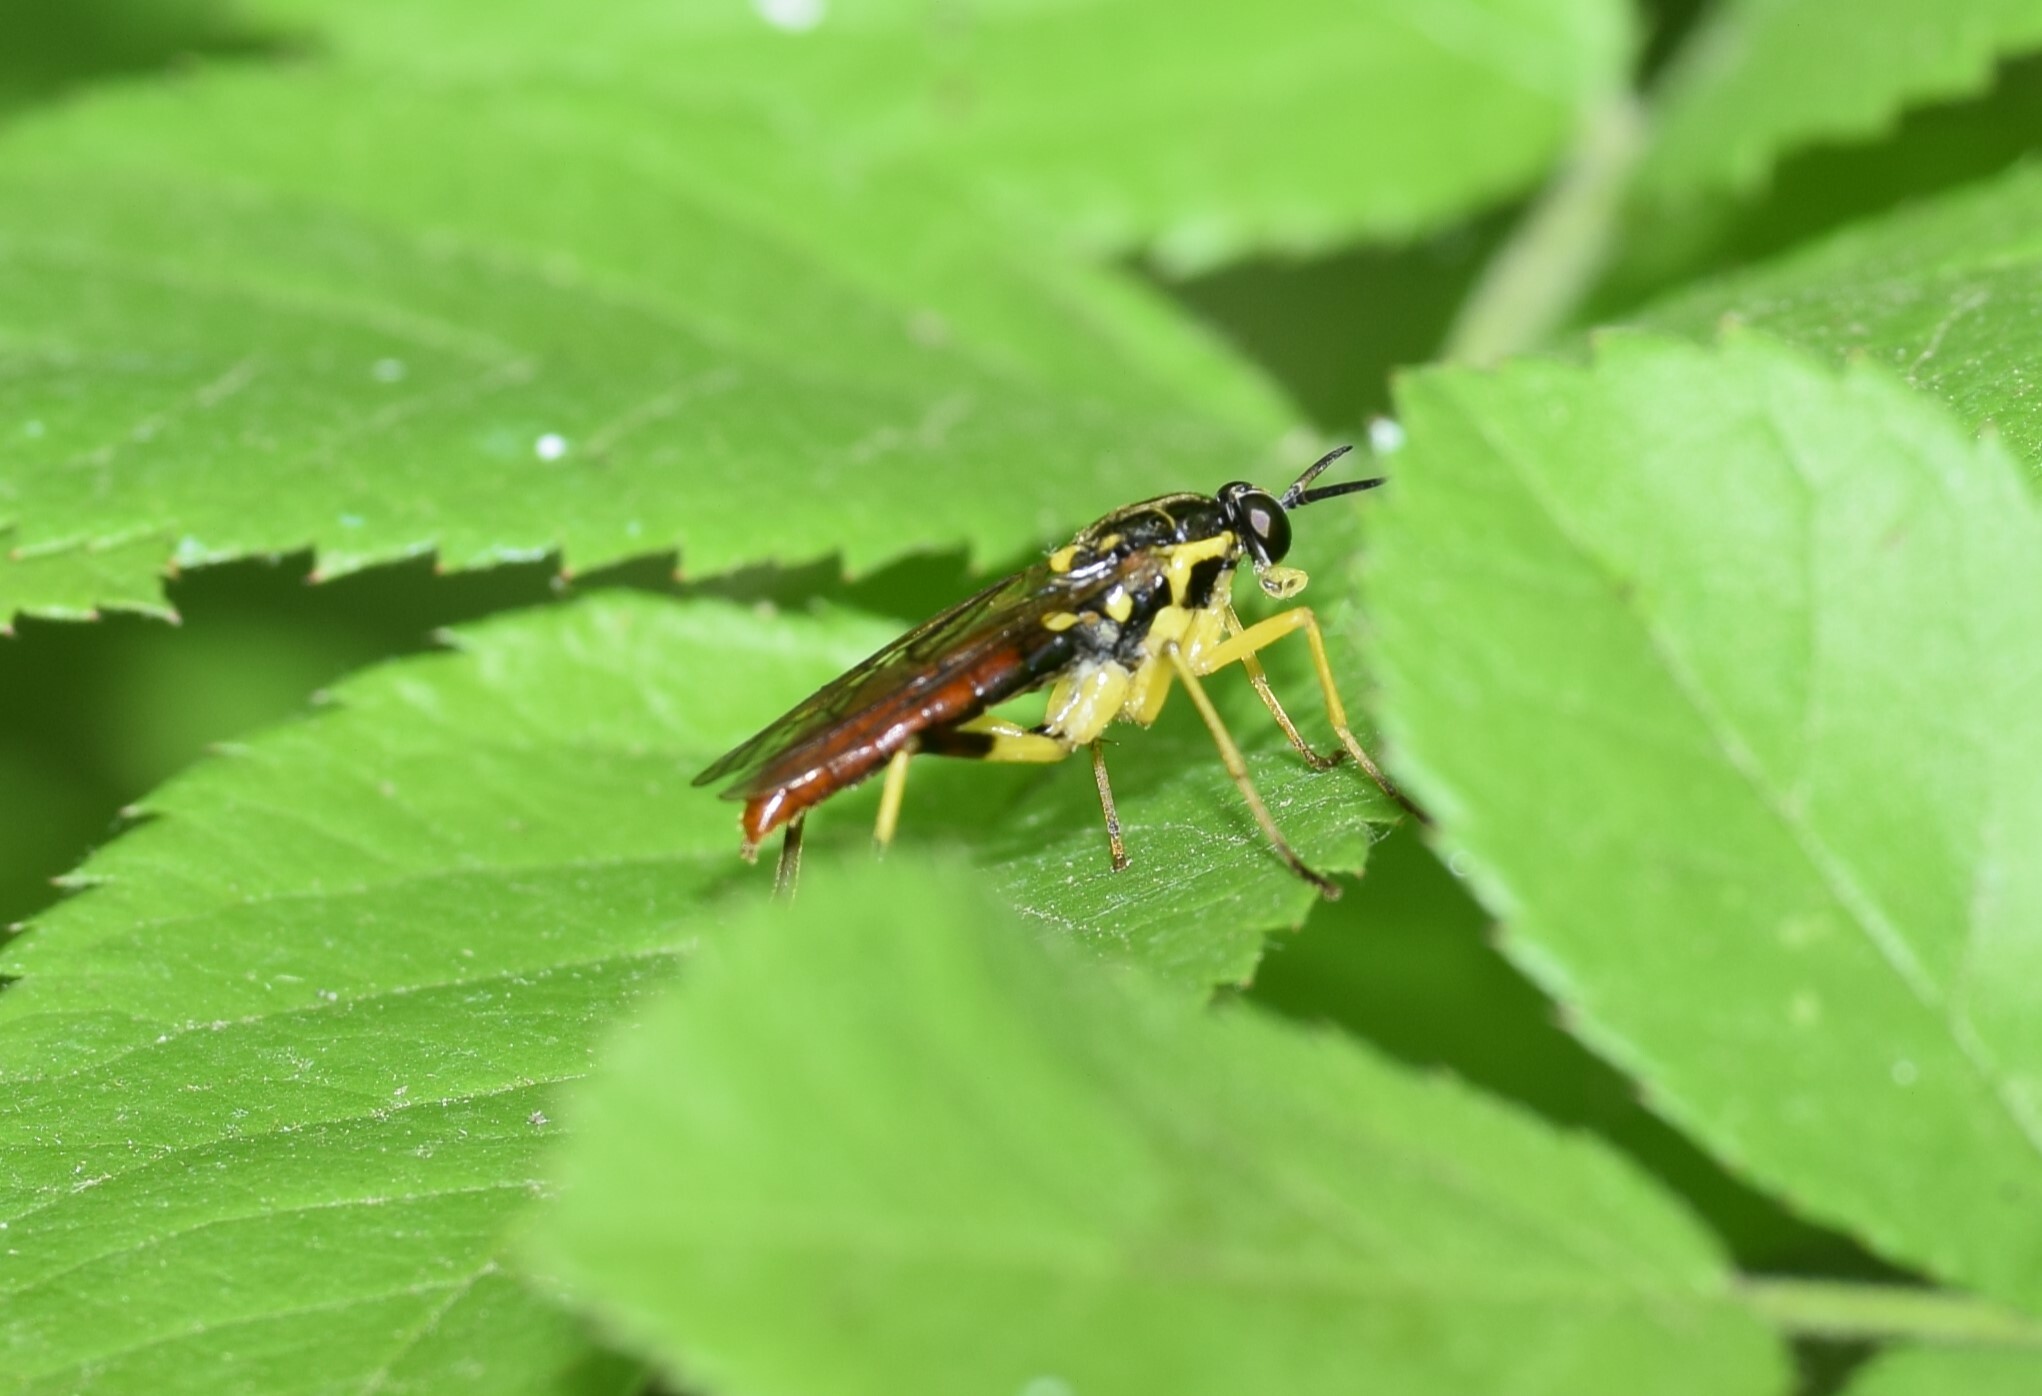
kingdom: Animalia
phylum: Arthropoda
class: Insecta
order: Diptera
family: Xylomyidae
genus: Xylomya
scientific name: Xylomya simillima
